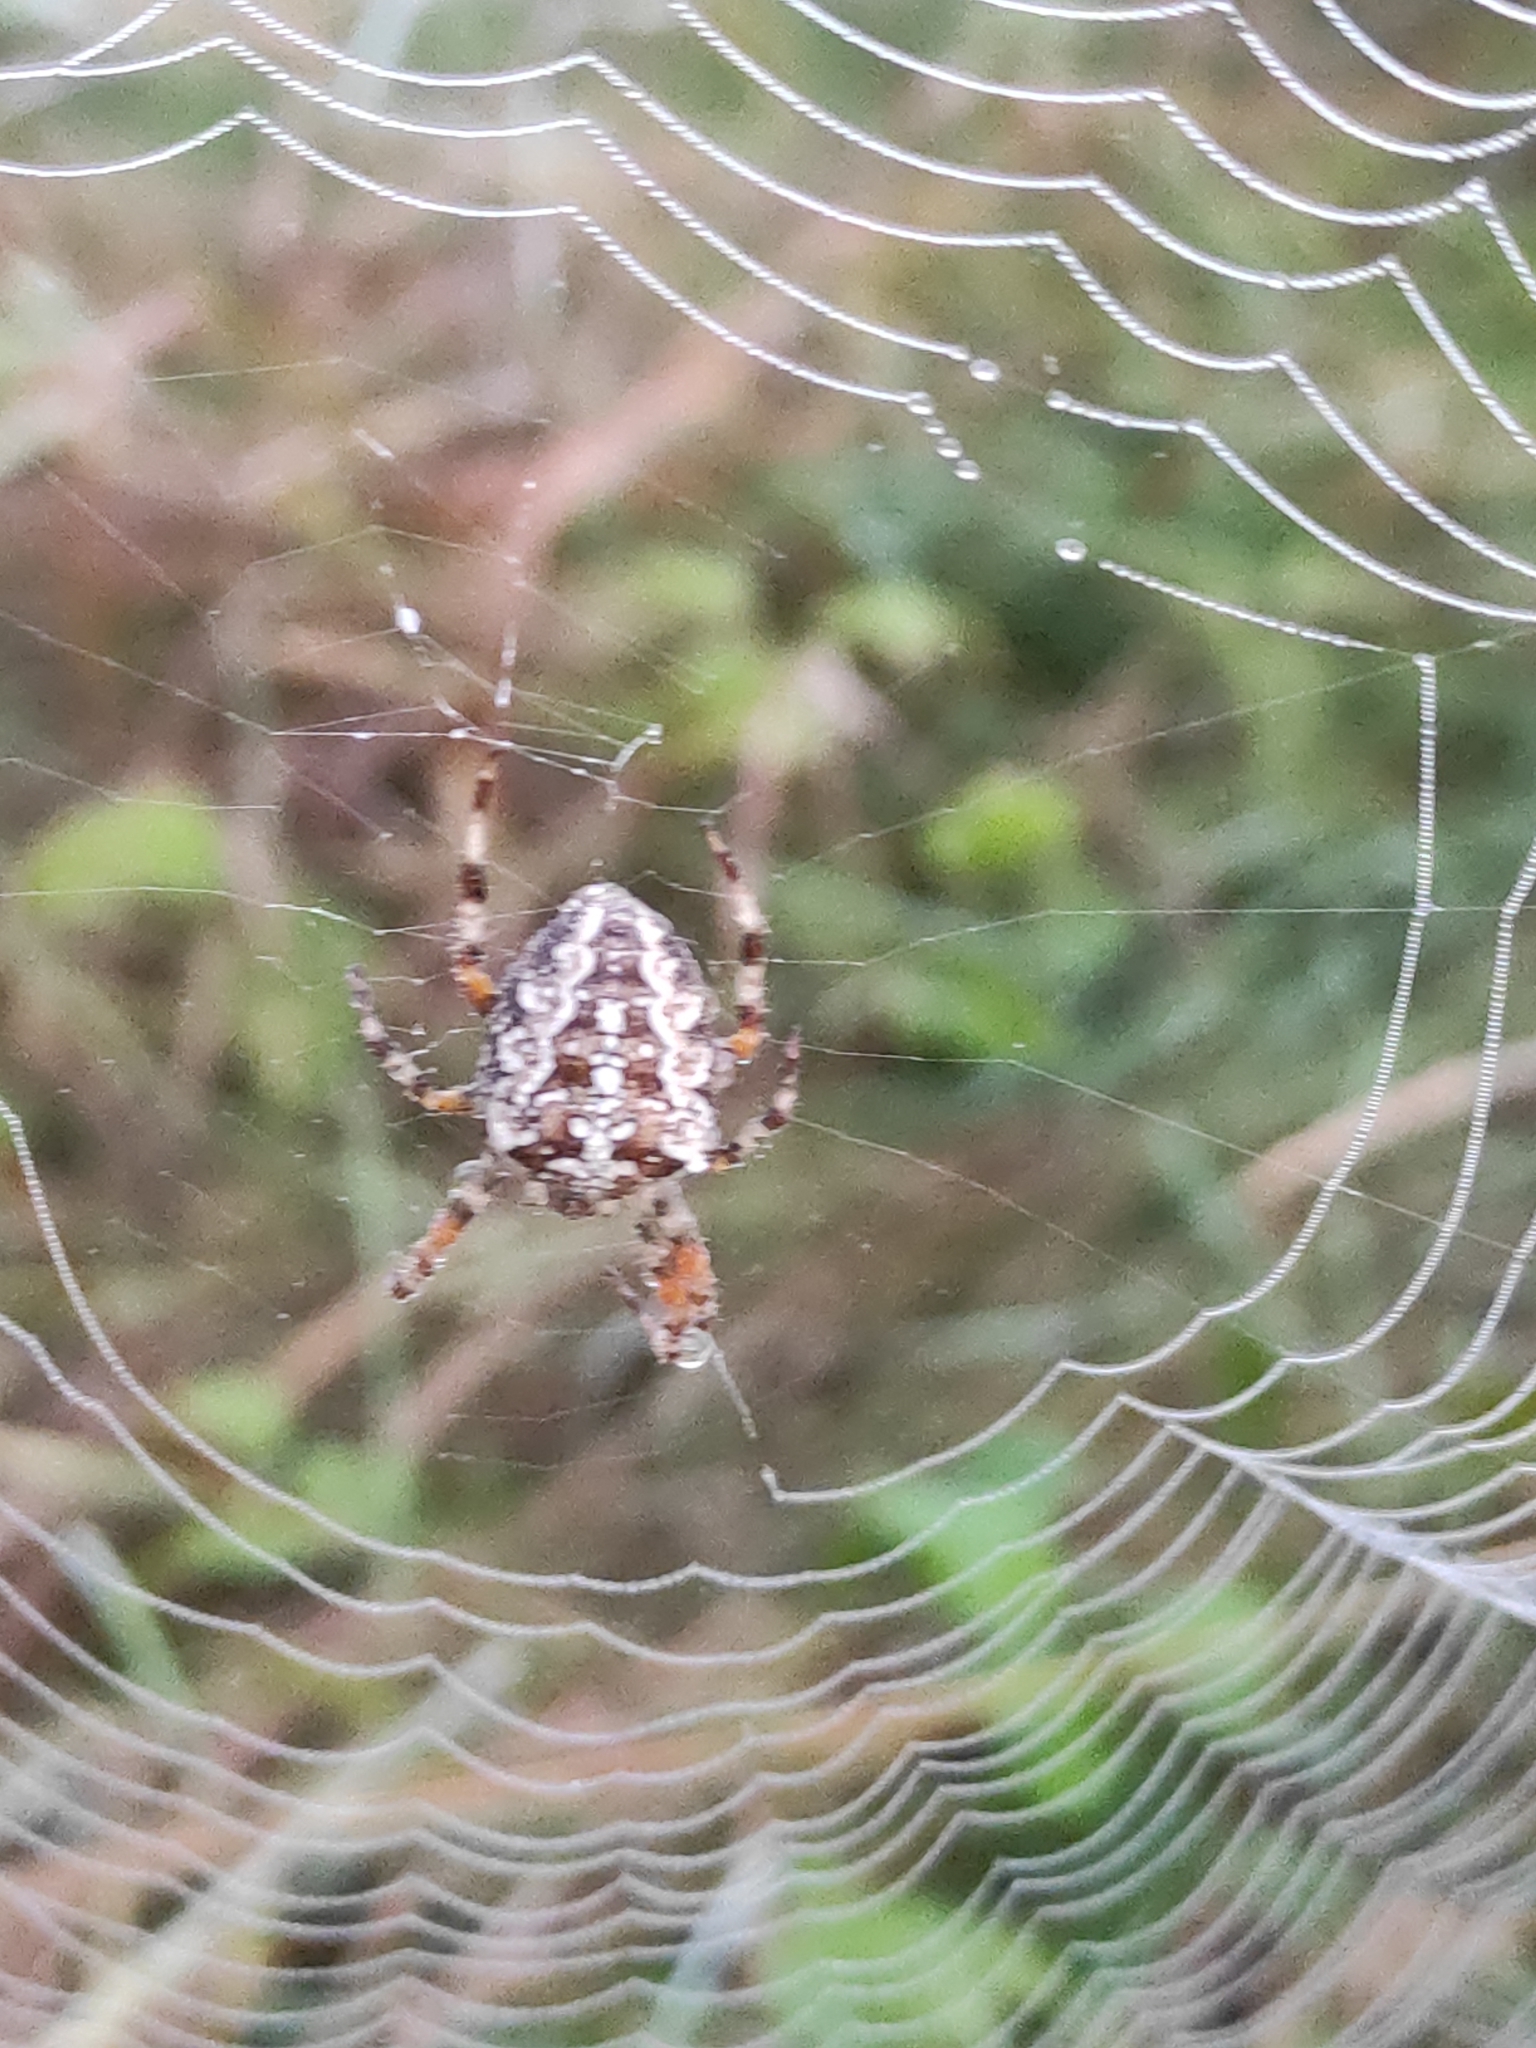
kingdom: Animalia
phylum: Arthropoda
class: Arachnida
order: Araneae
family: Araneidae
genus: Araneus
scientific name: Araneus diadematus
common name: Cross orbweaver
